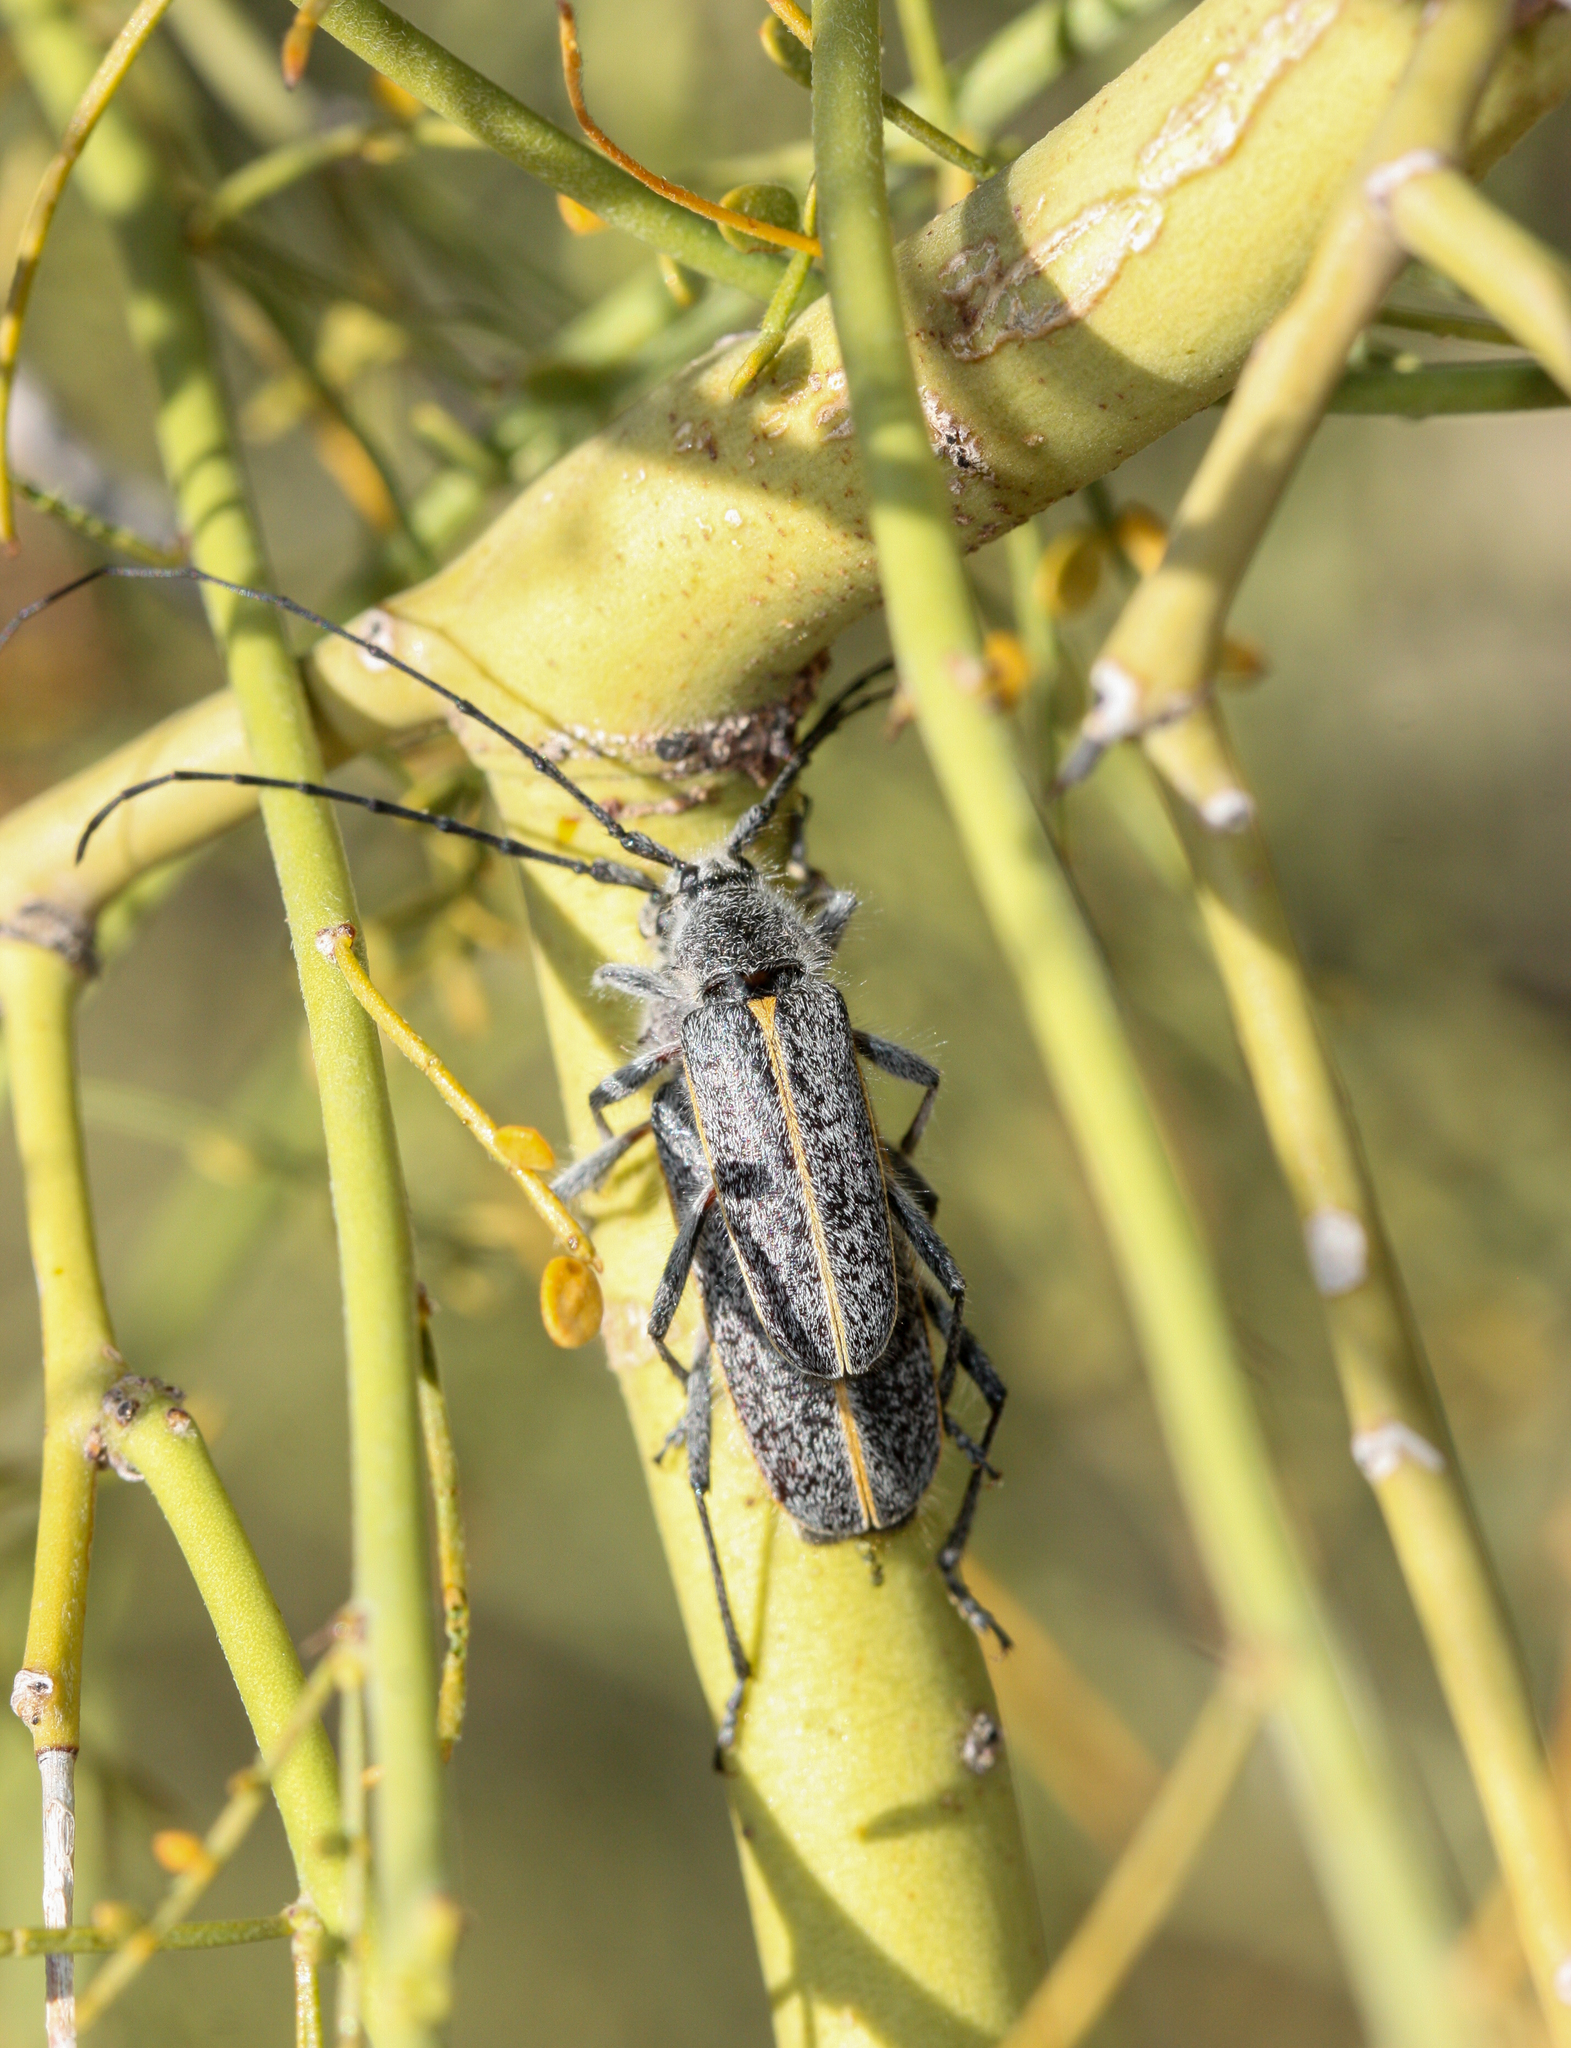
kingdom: Animalia
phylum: Arthropoda
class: Insecta
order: Coleoptera
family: Cerambycidae
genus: Schizax
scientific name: Schizax senex
